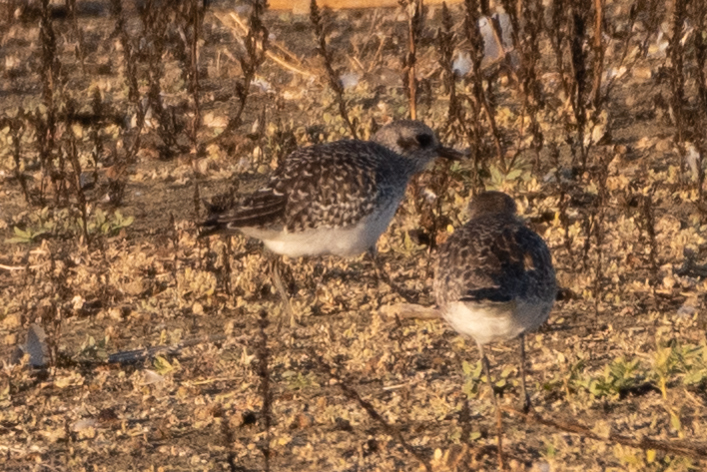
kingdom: Animalia
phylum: Chordata
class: Aves
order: Charadriiformes
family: Charadriidae
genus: Pluvialis
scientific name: Pluvialis squatarola
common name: Grey plover
